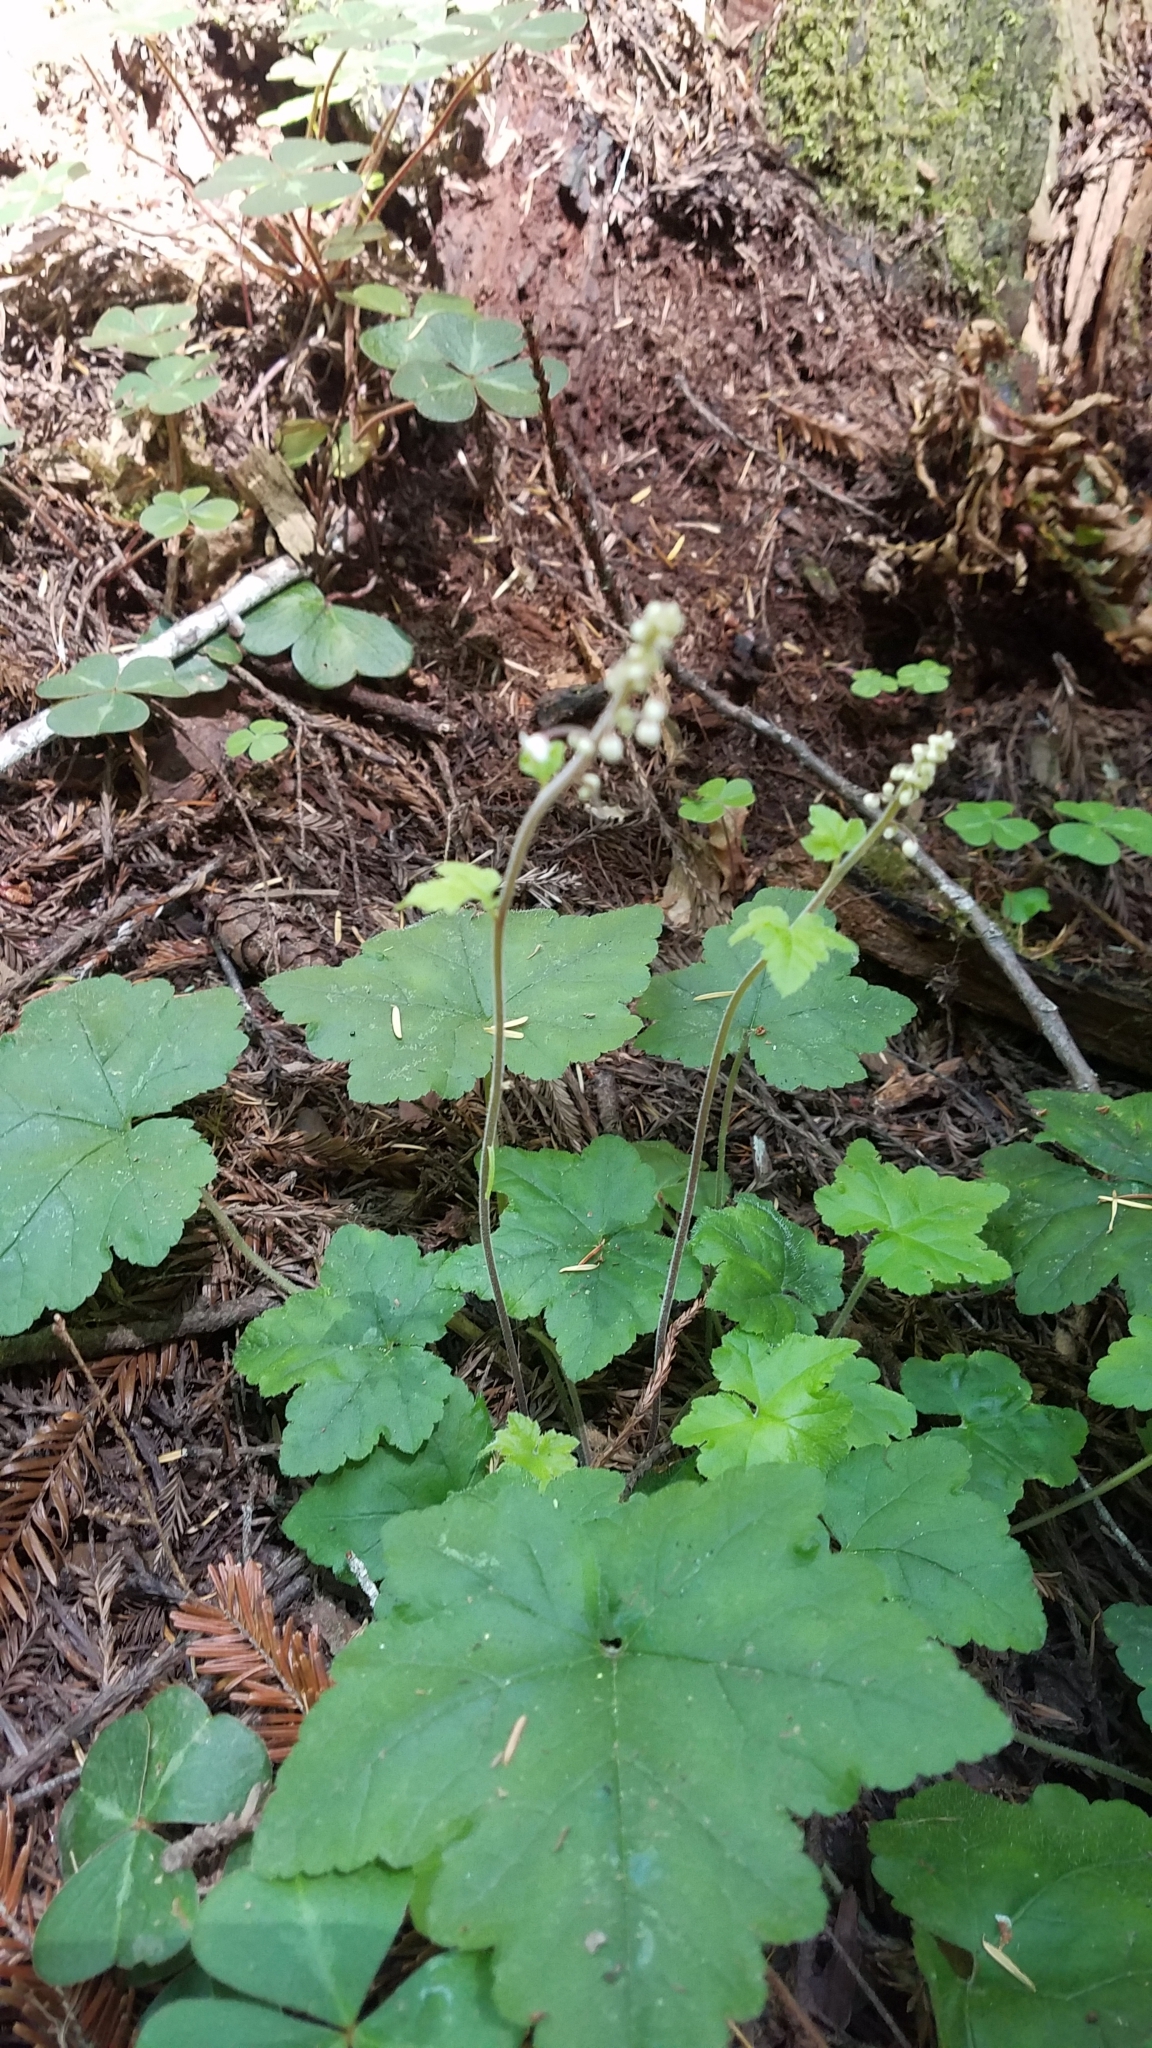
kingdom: Plantae
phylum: Tracheophyta
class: Magnoliopsida
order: Saxifragales
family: Saxifragaceae
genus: Tiarella
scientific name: Tiarella trifoliata
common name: Sugar-scoop
